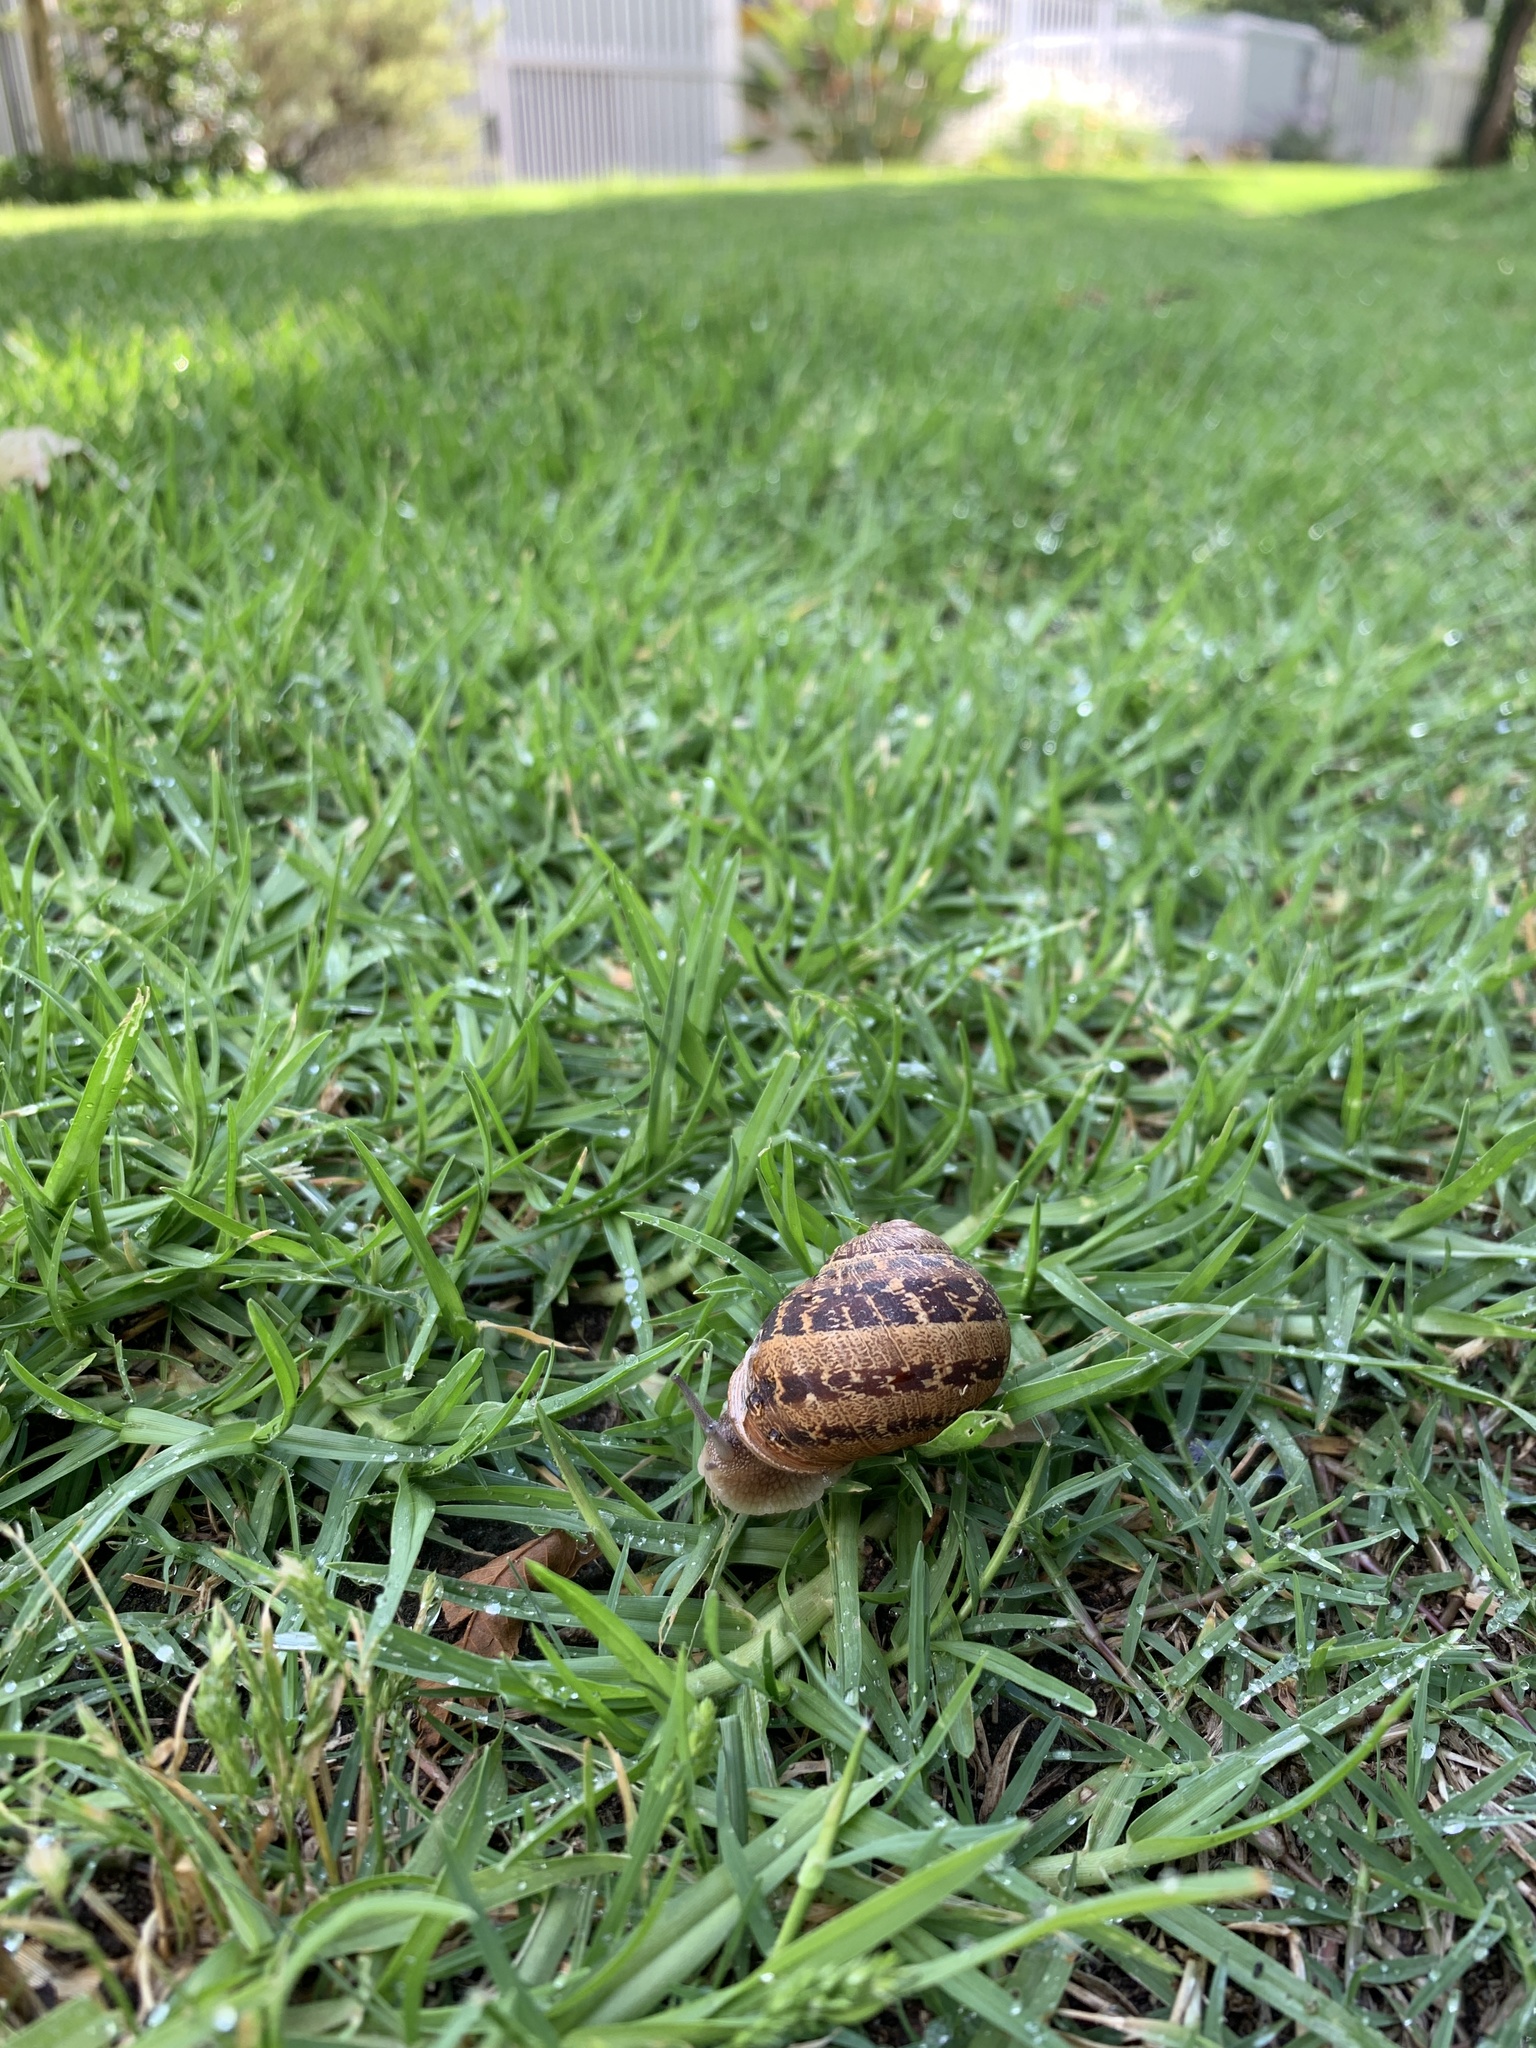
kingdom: Animalia
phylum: Mollusca
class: Gastropoda
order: Stylommatophora
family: Helicidae
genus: Cornu
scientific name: Cornu aspersum
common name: Brown garden snail
